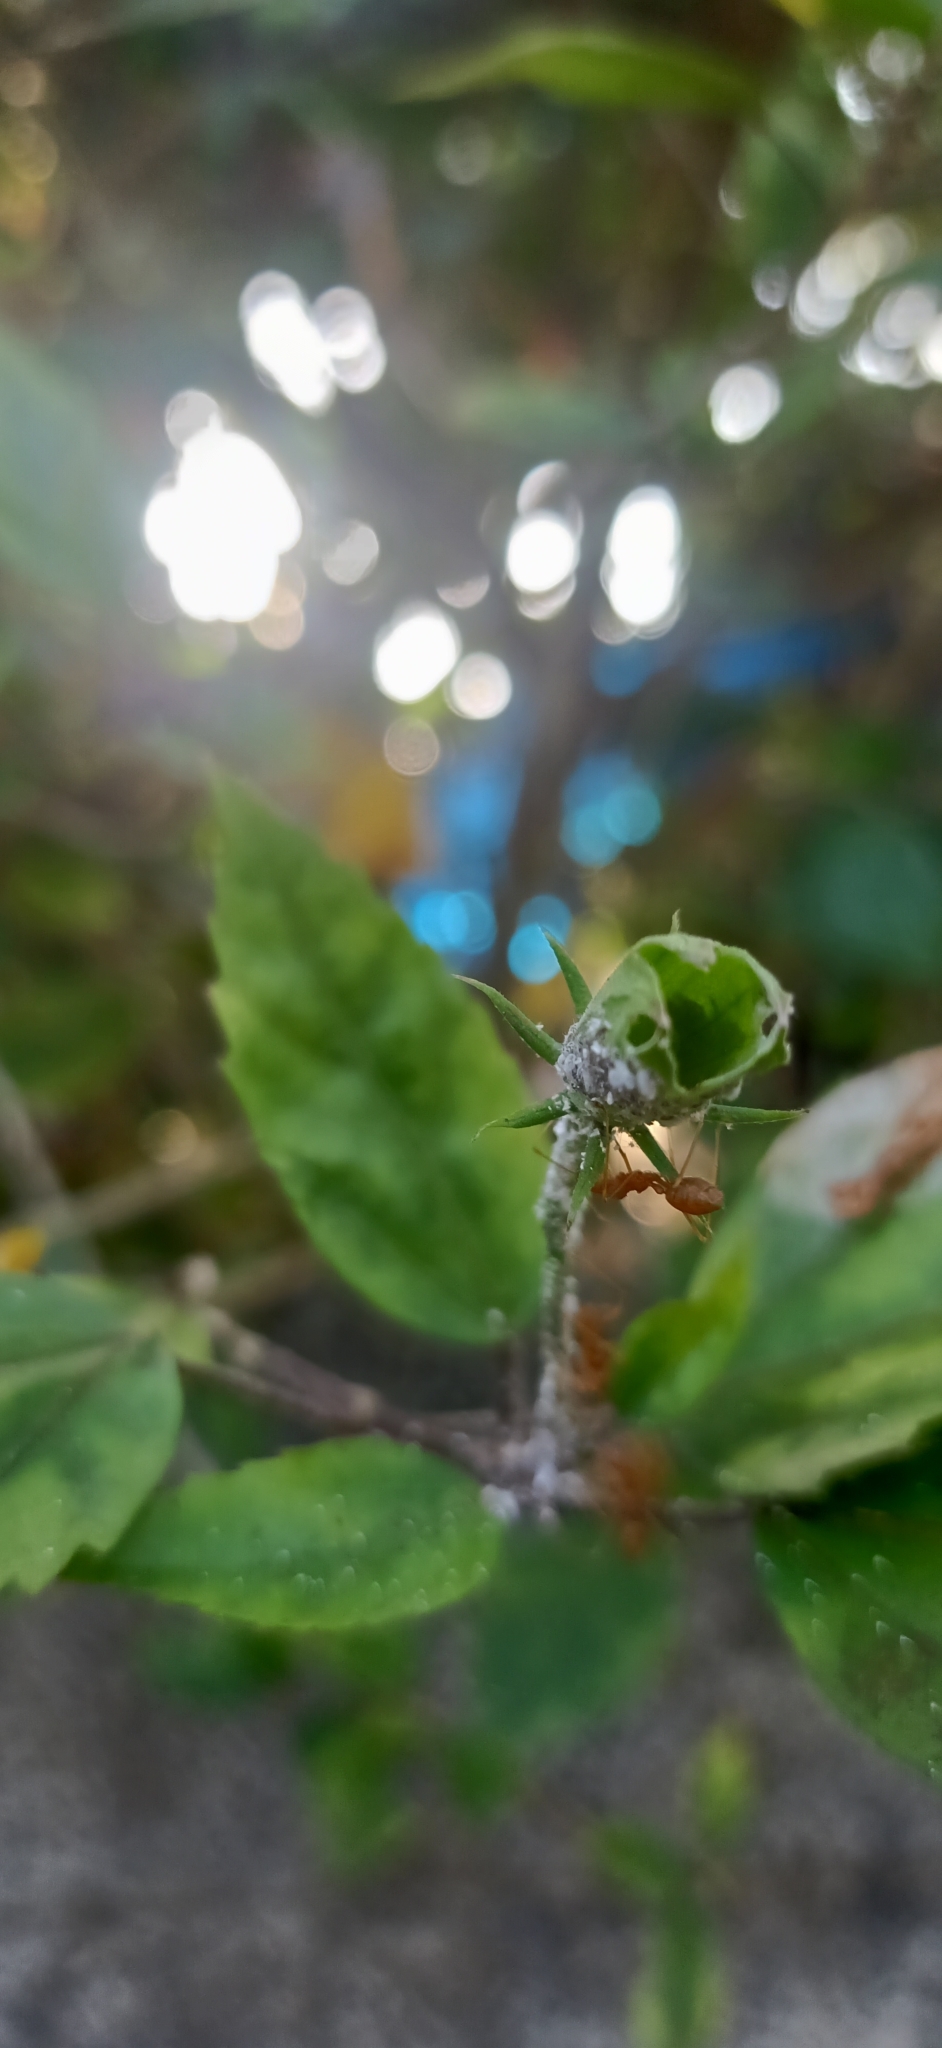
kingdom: Animalia
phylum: Arthropoda
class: Insecta
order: Hymenoptera
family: Formicidae
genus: Oecophylla
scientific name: Oecophylla smaragdina
